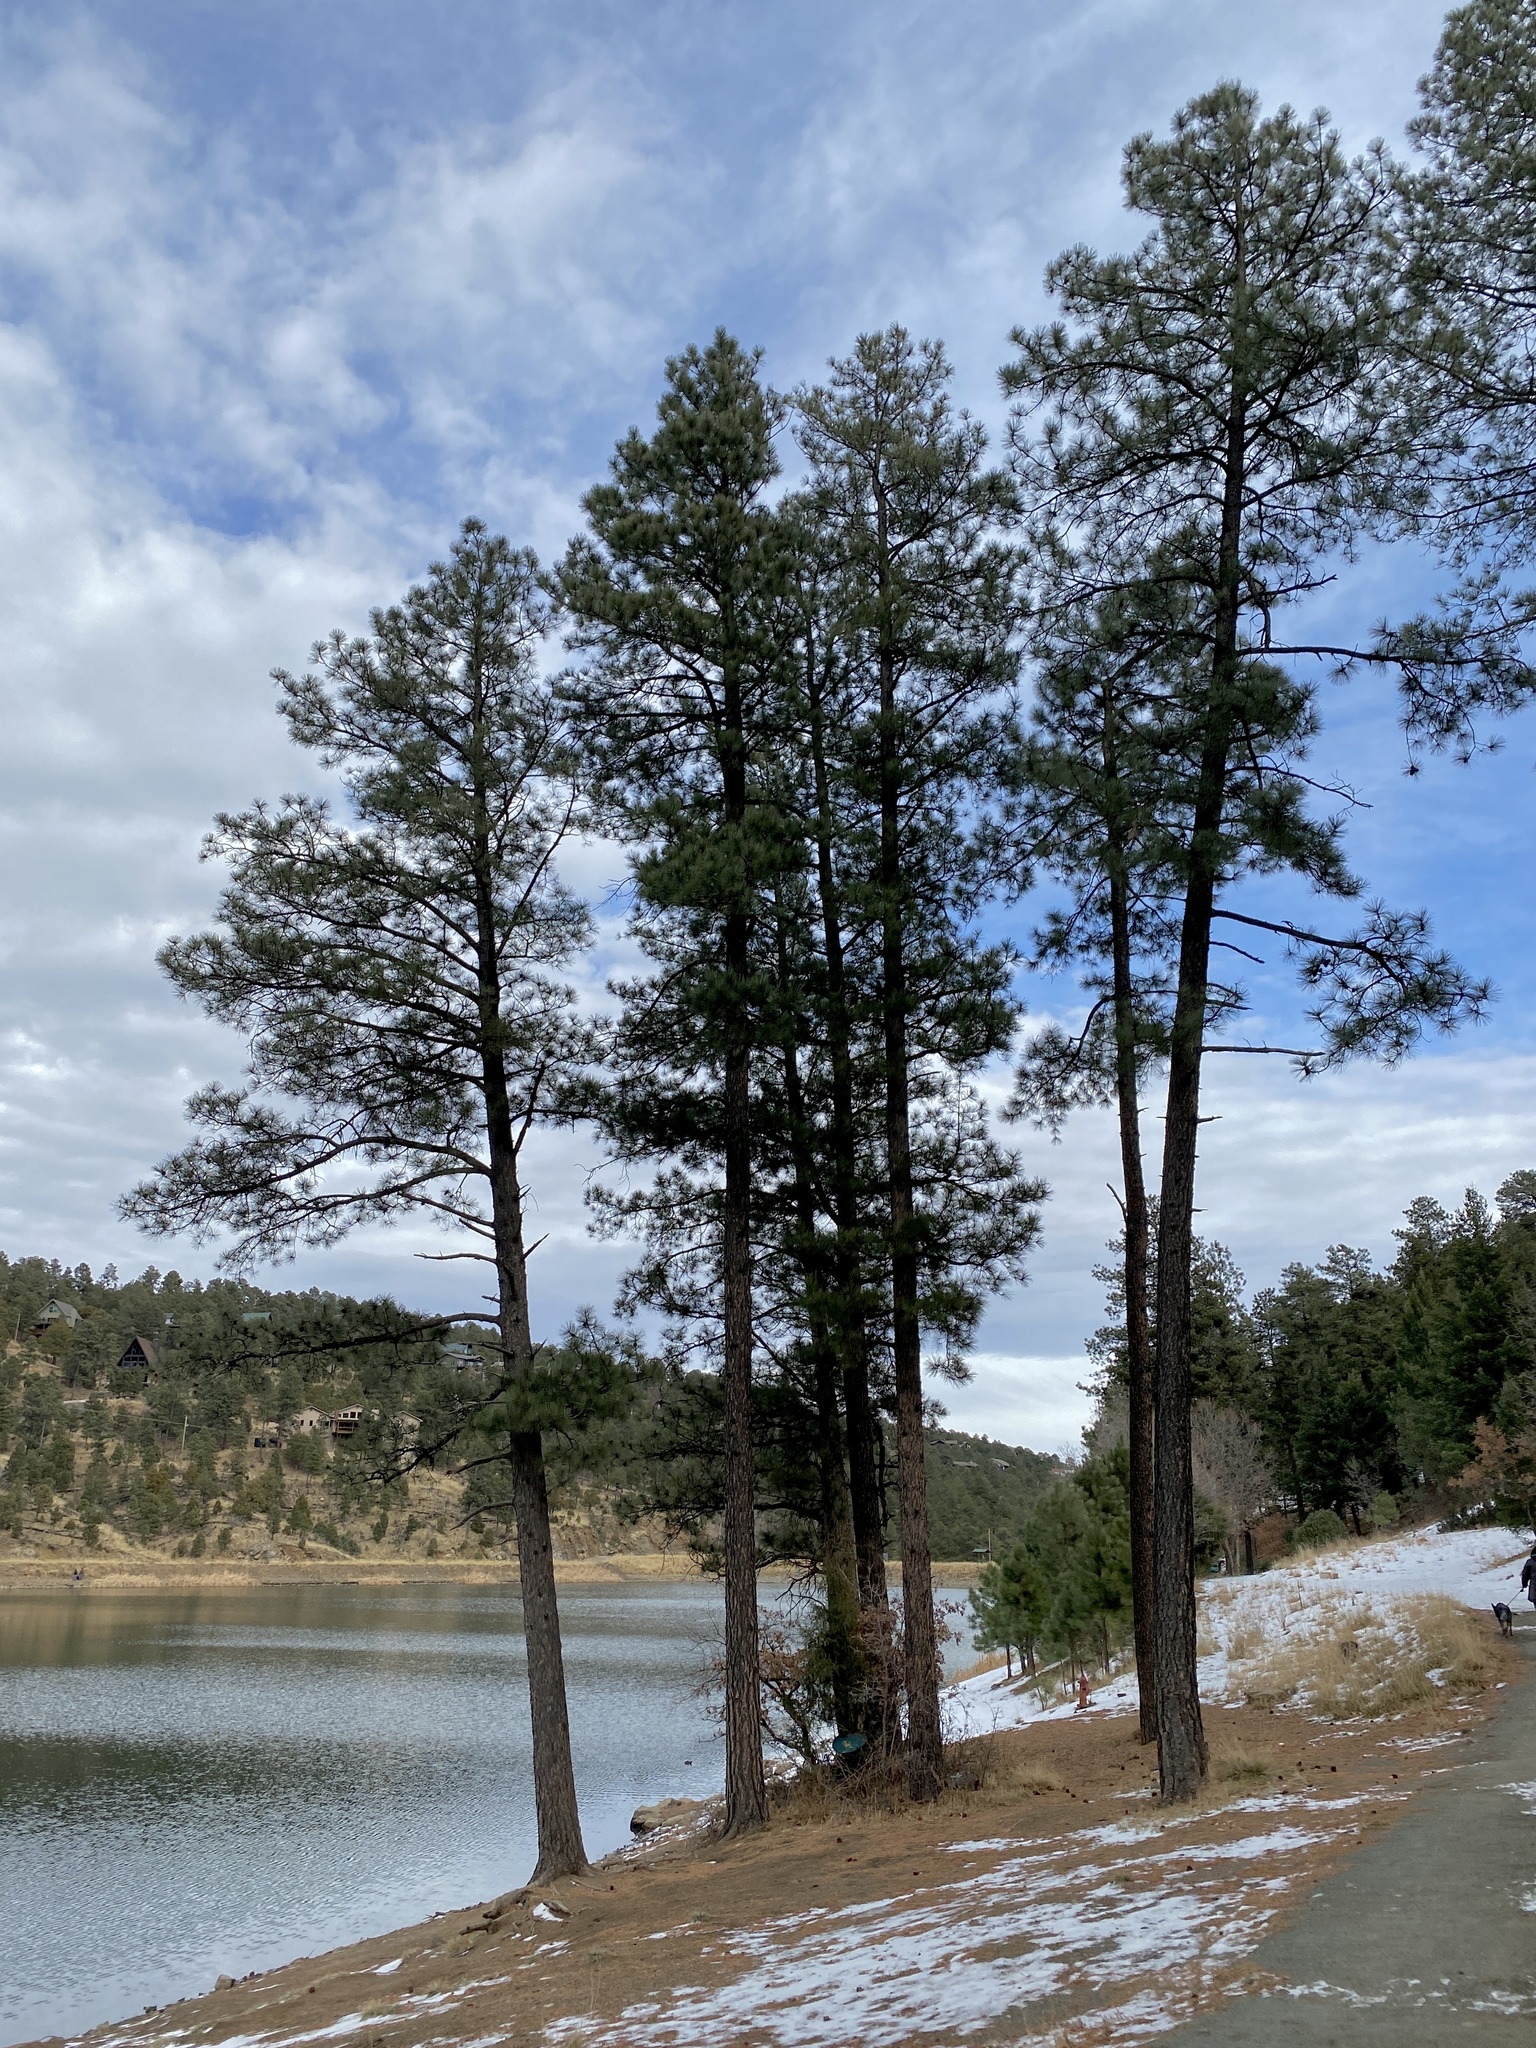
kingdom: Plantae
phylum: Tracheophyta
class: Pinopsida
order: Pinales
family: Pinaceae
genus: Pinus
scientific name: Pinus ponderosa
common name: Western yellow-pine
